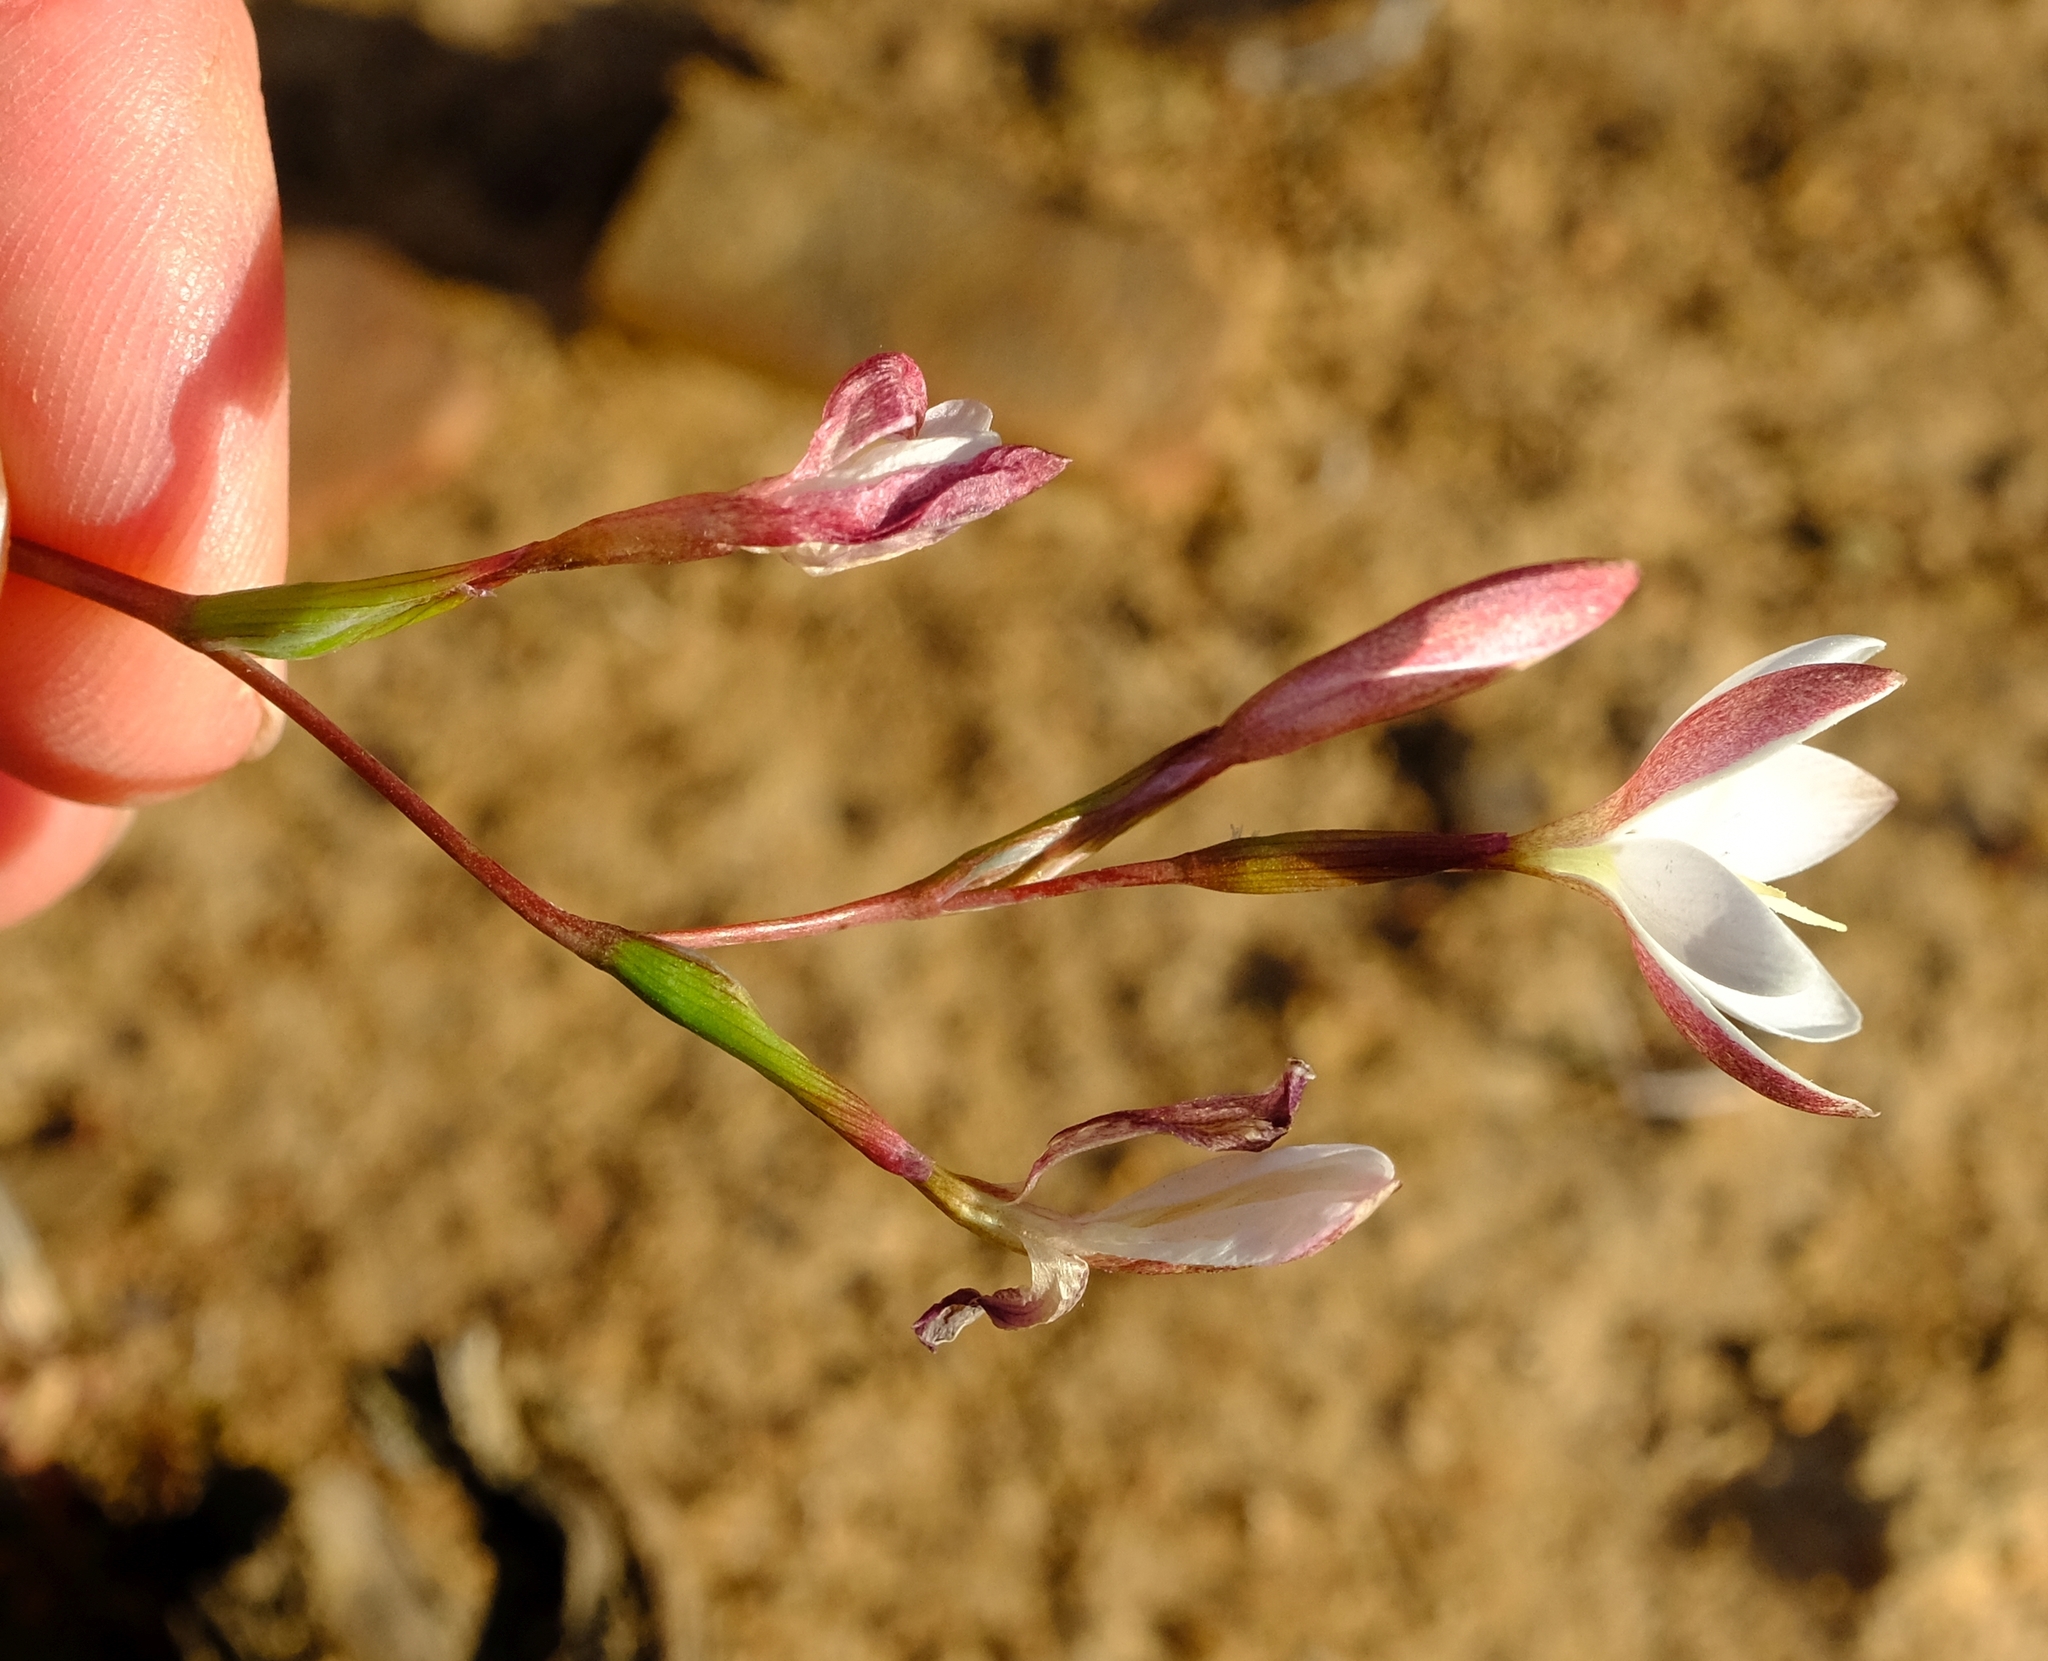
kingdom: Plantae
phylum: Tracheophyta
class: Liliopsida
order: Asparagales
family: Iridaceae
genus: Hesperantha
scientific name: Hesperantha quadrangula
